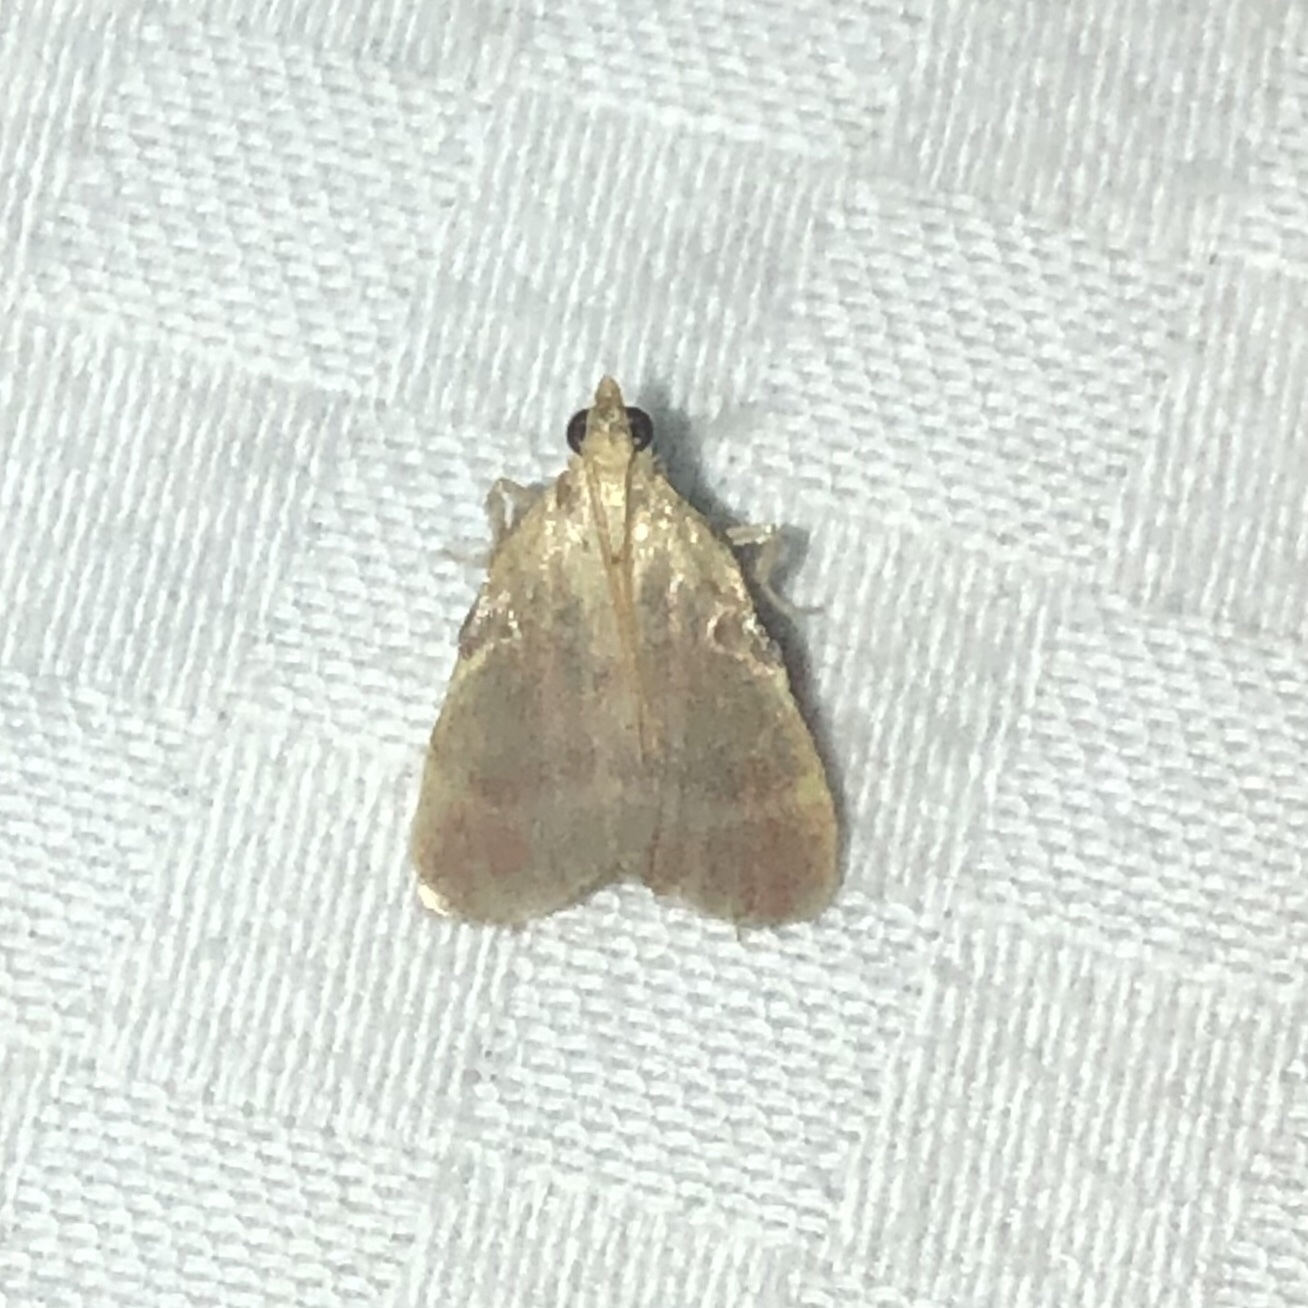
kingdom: Animalia
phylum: Arthropoda
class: Insecta
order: Lepidoptera
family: Pyralidae
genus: Condylolomia
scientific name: Condylolomia participialis
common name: Drab condylolomia moth
